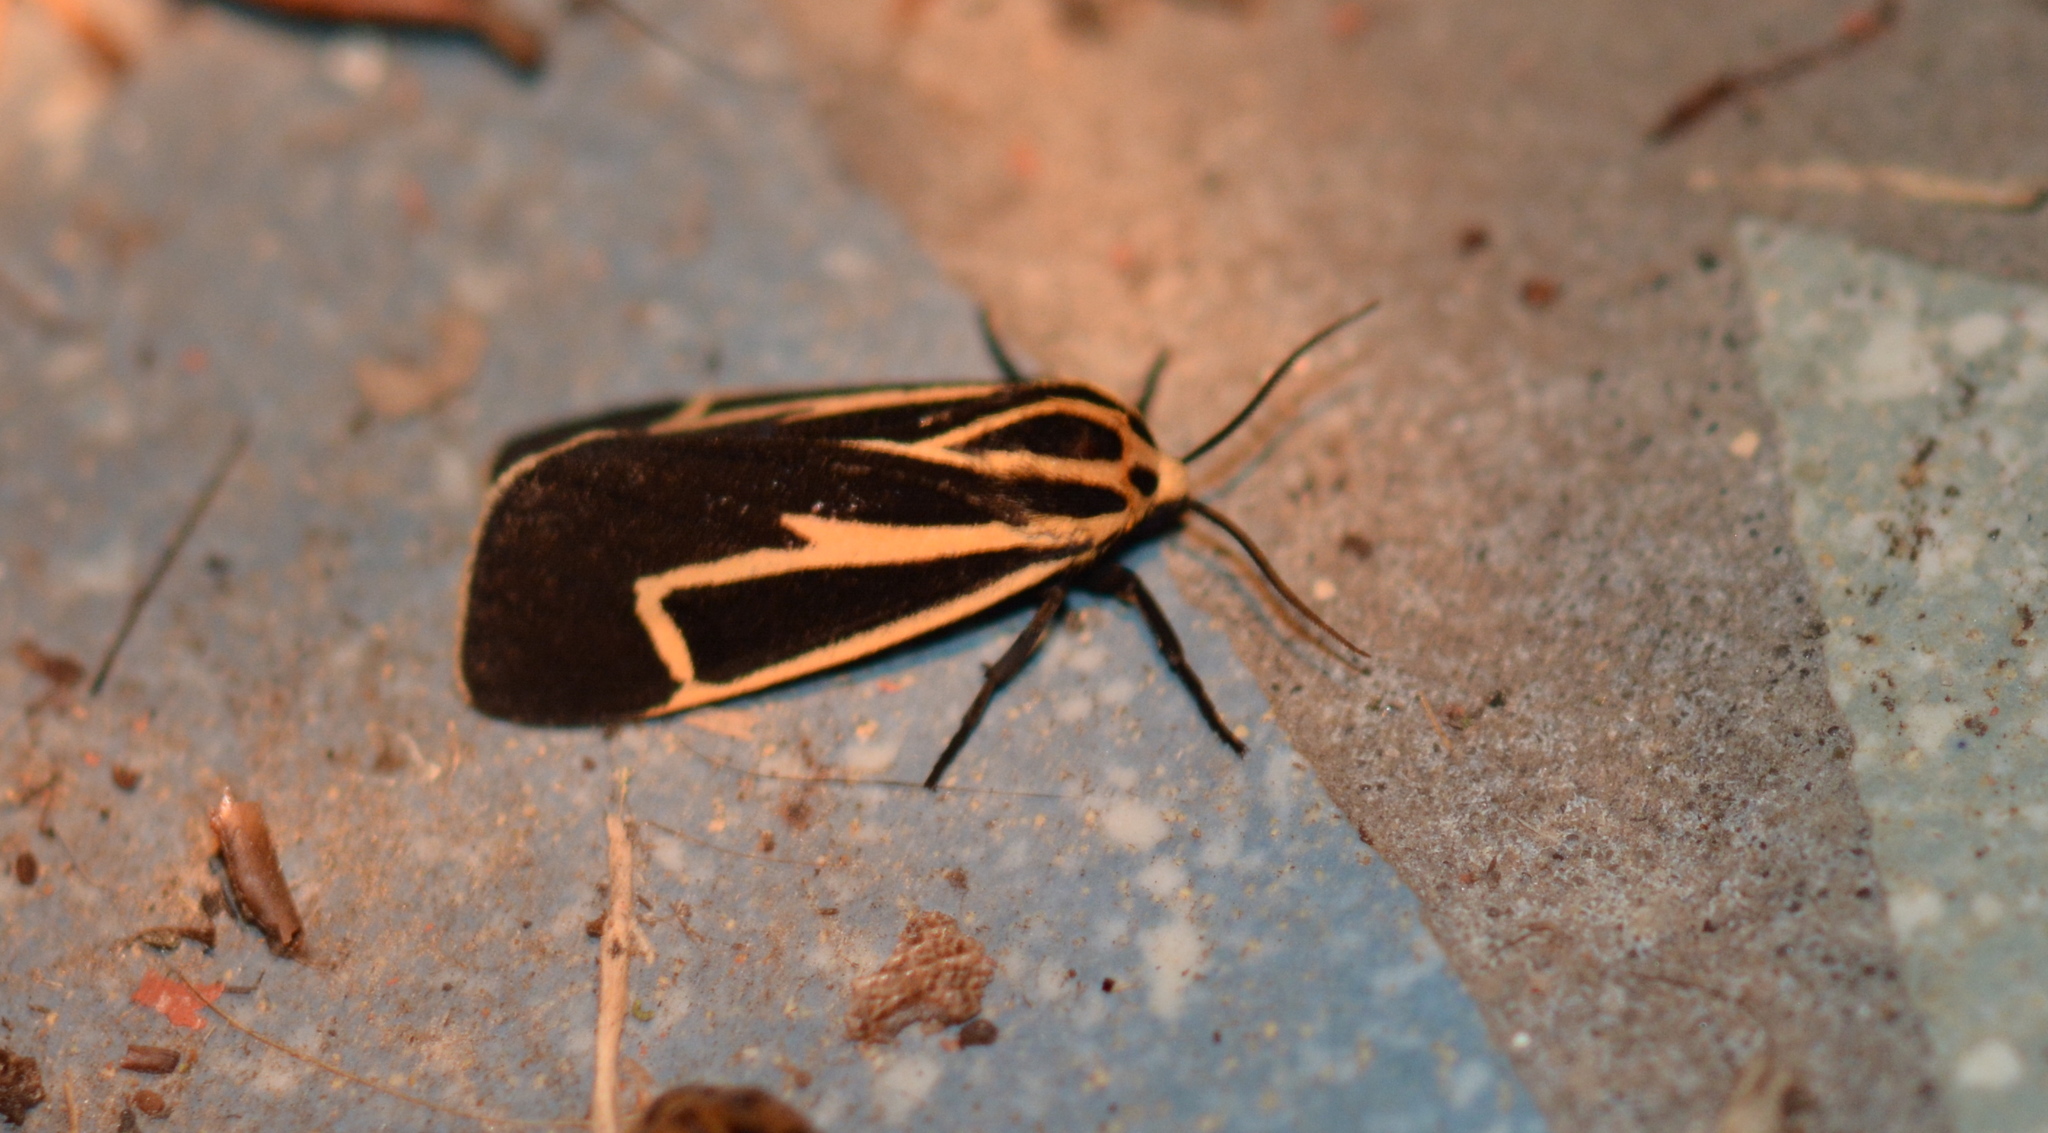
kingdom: Animalia
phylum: Arthropoda
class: Insecta
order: Lepidoptera
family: Erebidae
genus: Apantesis
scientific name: Apantesis vittata
